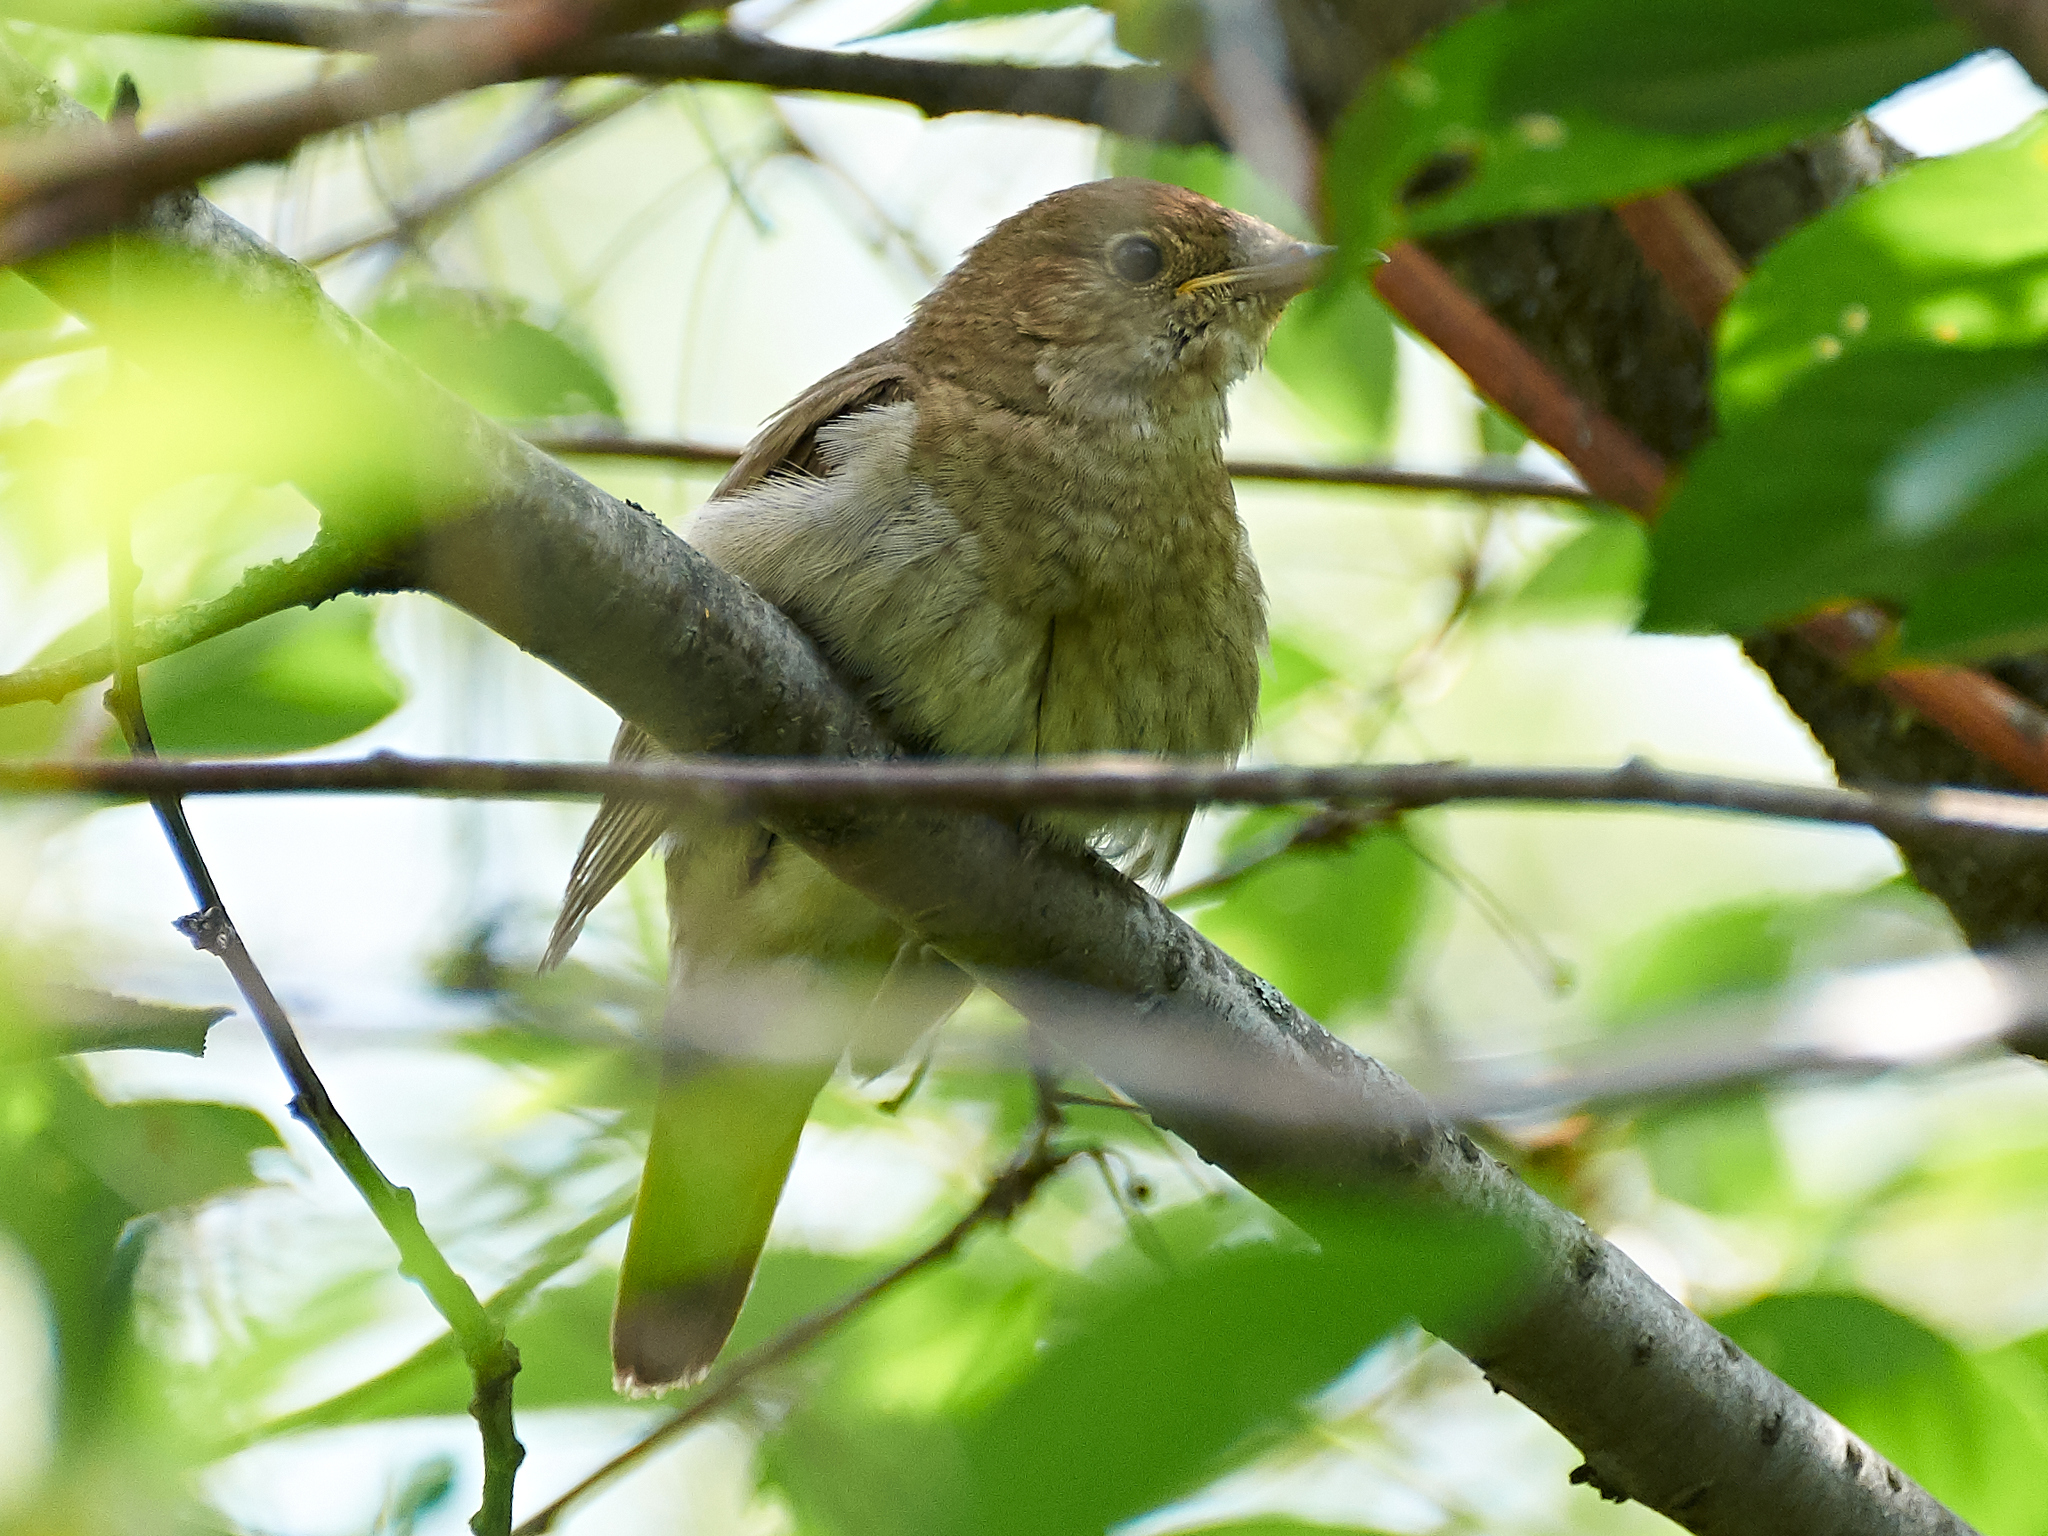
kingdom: Animalia
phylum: Chordata
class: Aves
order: Passeriformes
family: Muscicapidae
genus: Luscinia
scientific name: Luscinia luscinia
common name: Thrush nightingale
